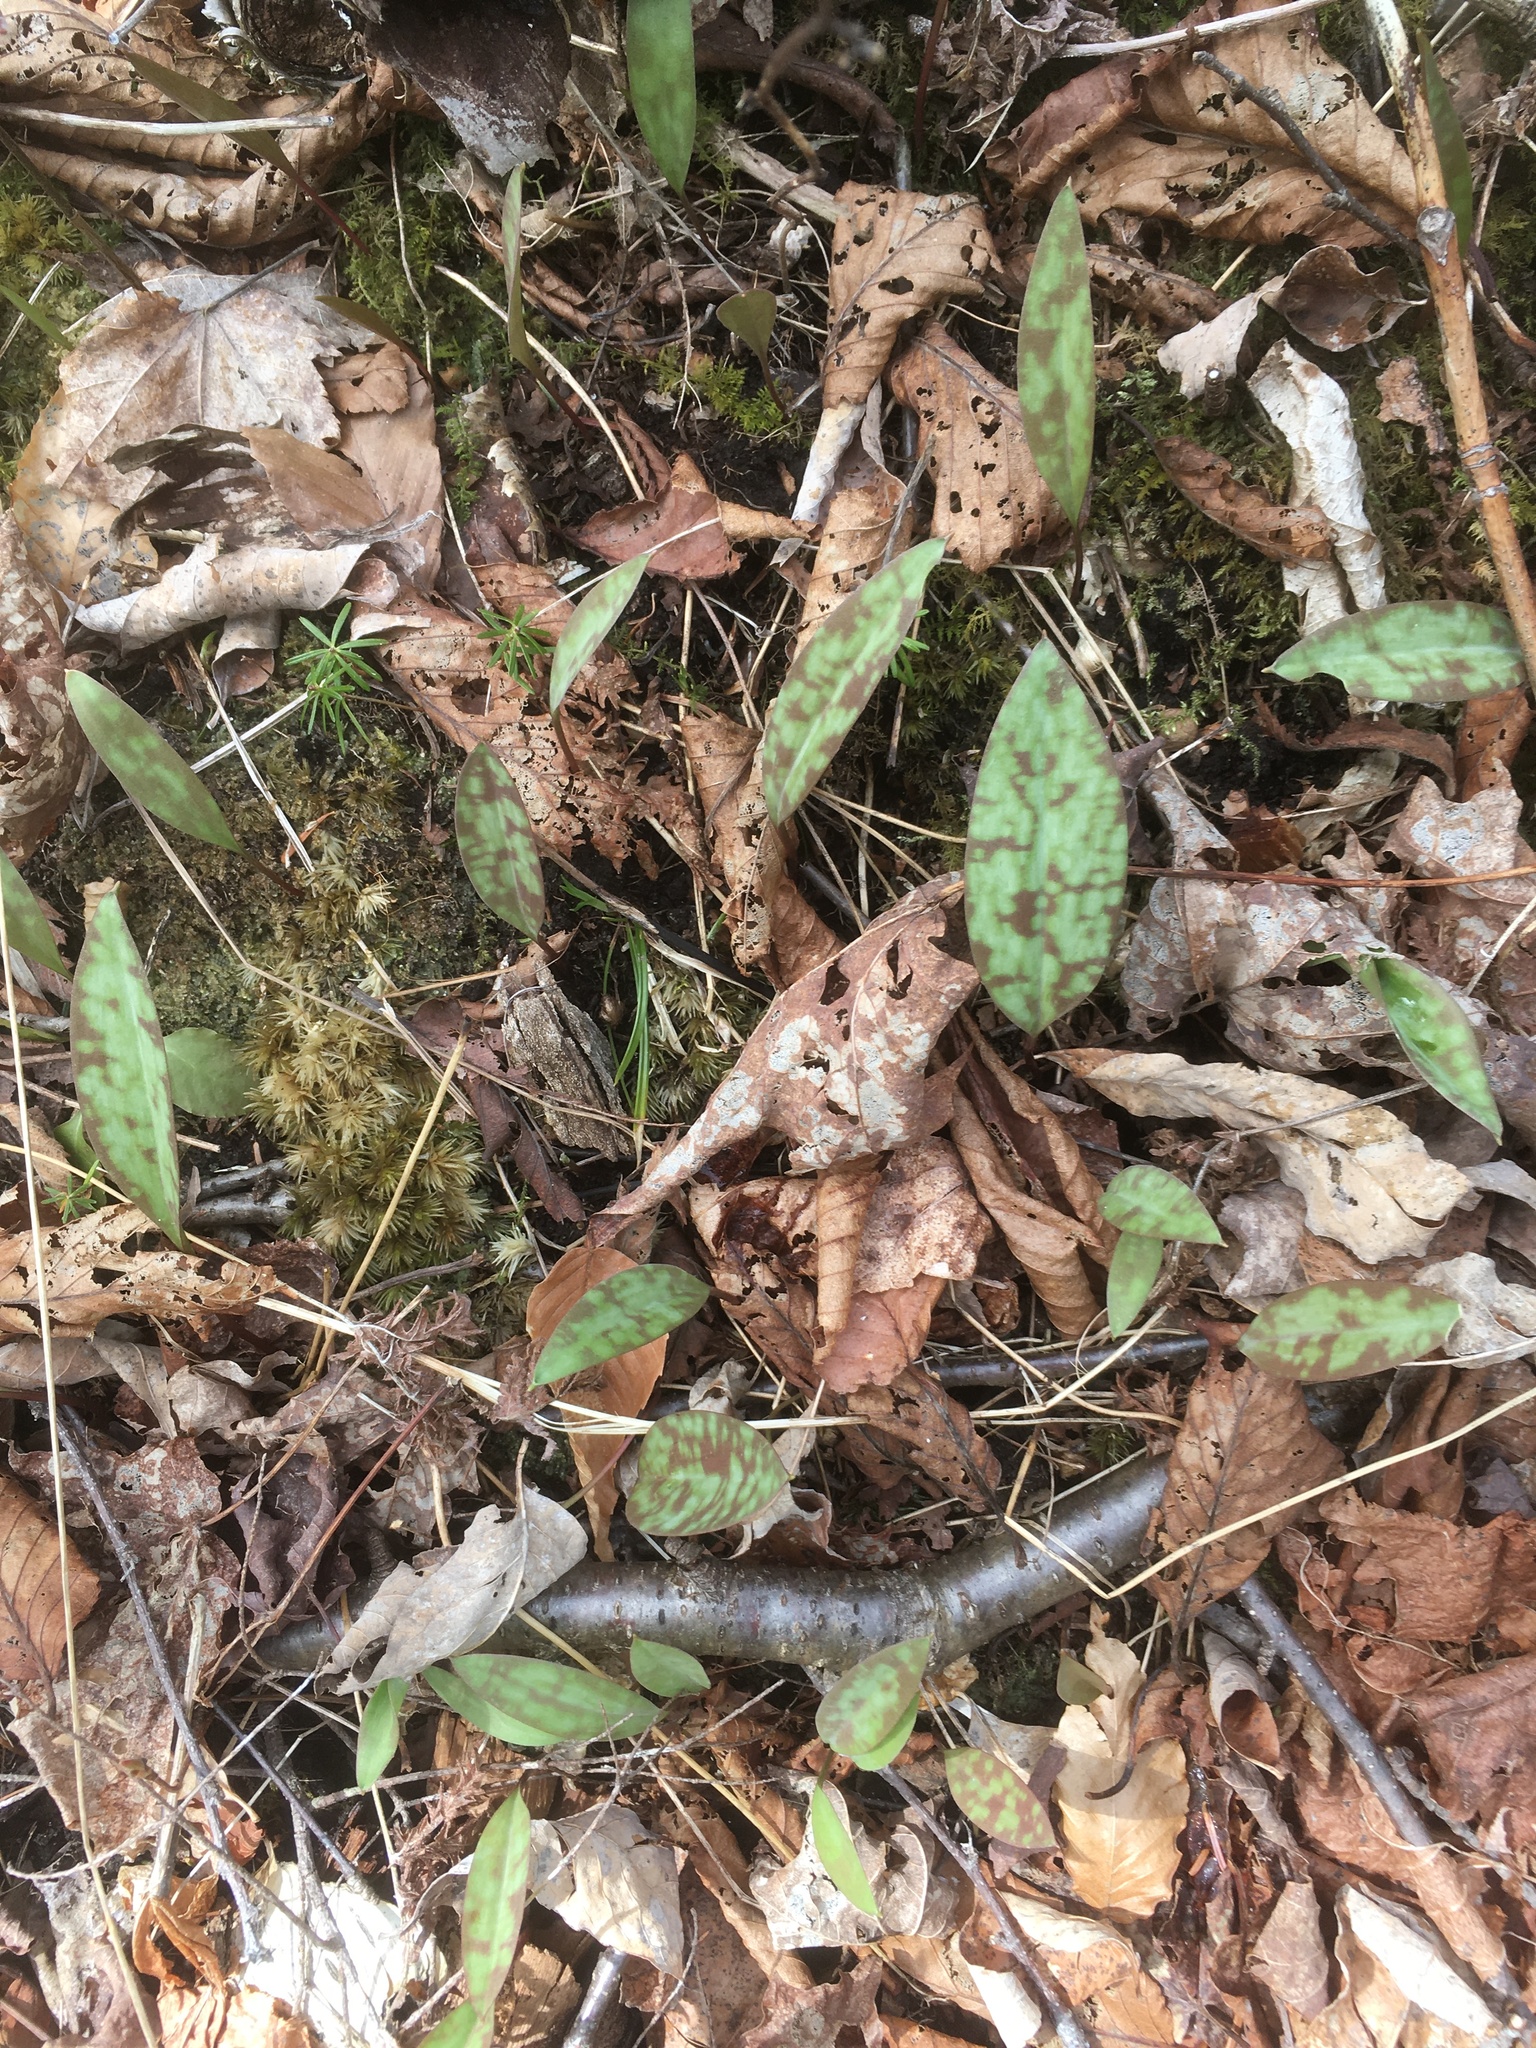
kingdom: Plantae
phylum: Tracheophyta
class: Liliopsida
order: Liliales
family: Liliaceae
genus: Erythronium
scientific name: Erythronium americanum
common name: Yellow adder's-tongue
